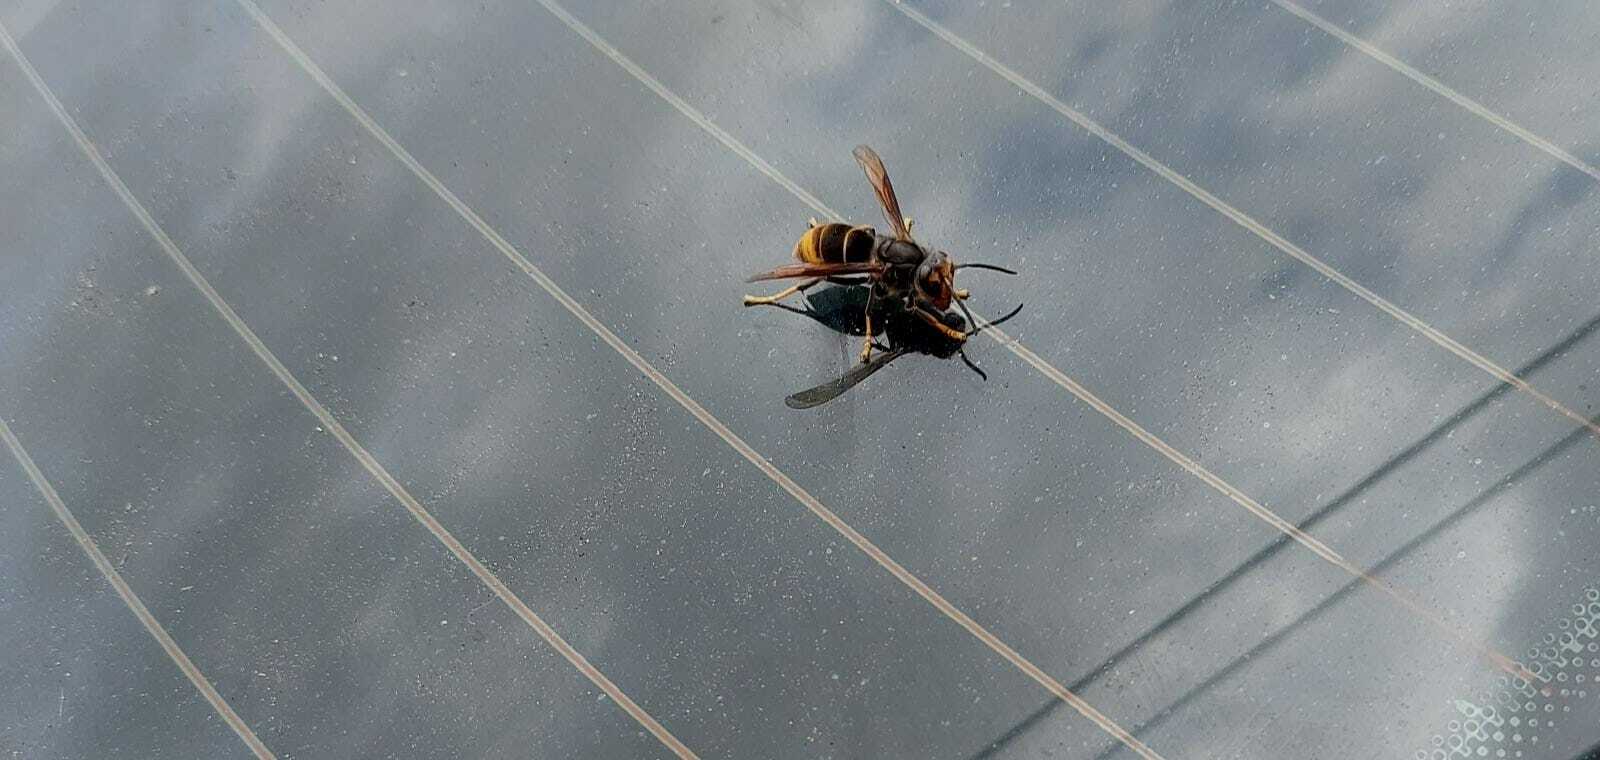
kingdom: Animalia
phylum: Arthropoda
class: Insecta
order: Hymenoptera
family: Vespidae
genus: Vespa
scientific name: Vespa velutina
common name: Asian hornet
